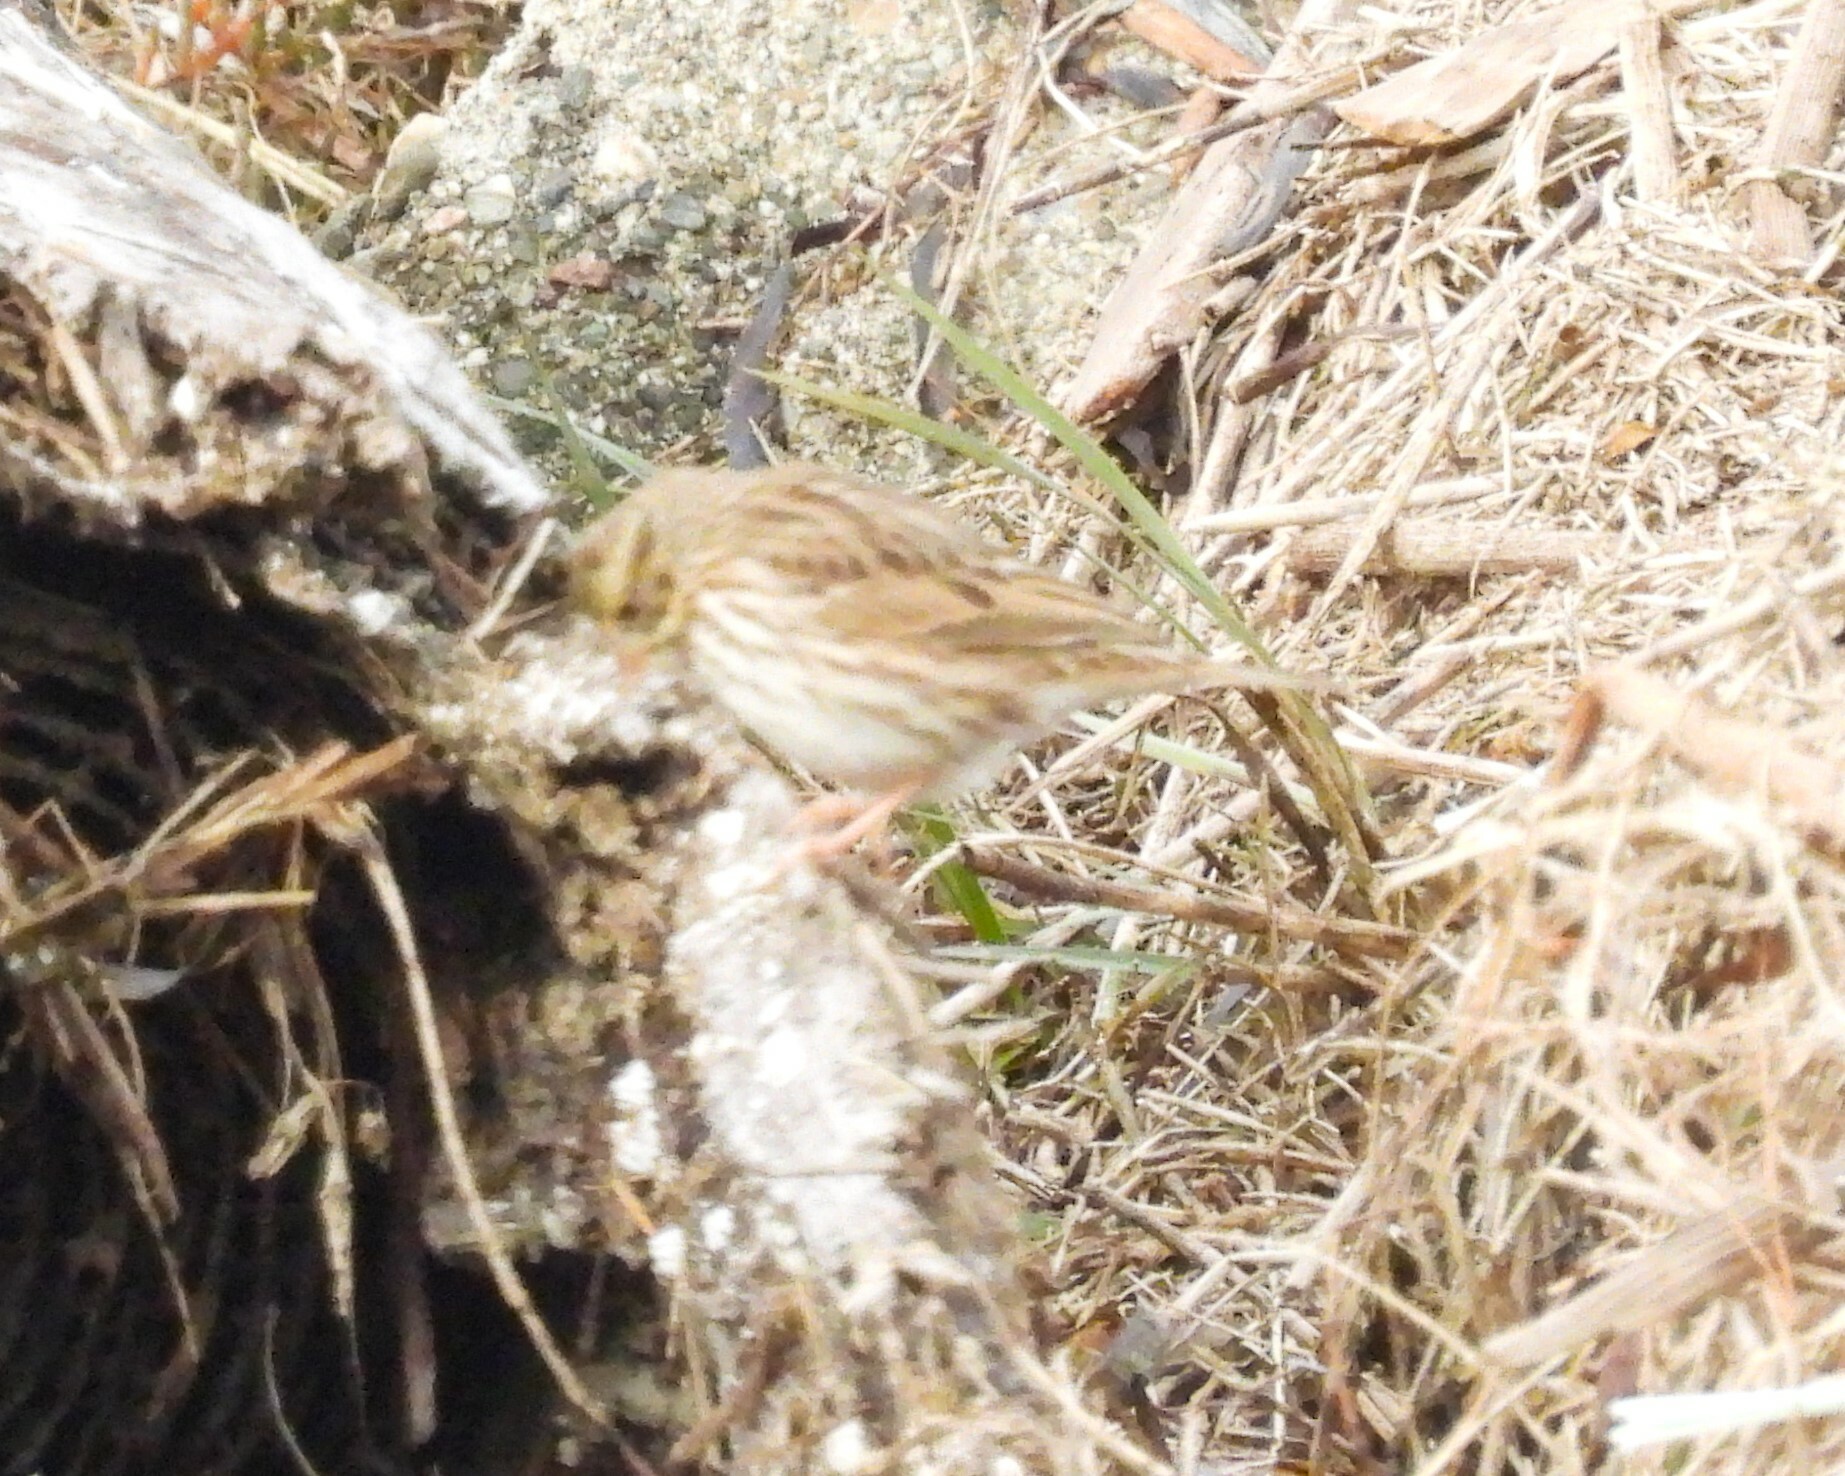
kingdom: Animalia
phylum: Chordata
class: Aves
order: Passeriformes
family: Passerellidae
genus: Passerculus
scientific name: Passerculus sandwichensis
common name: Savannah sparrow
